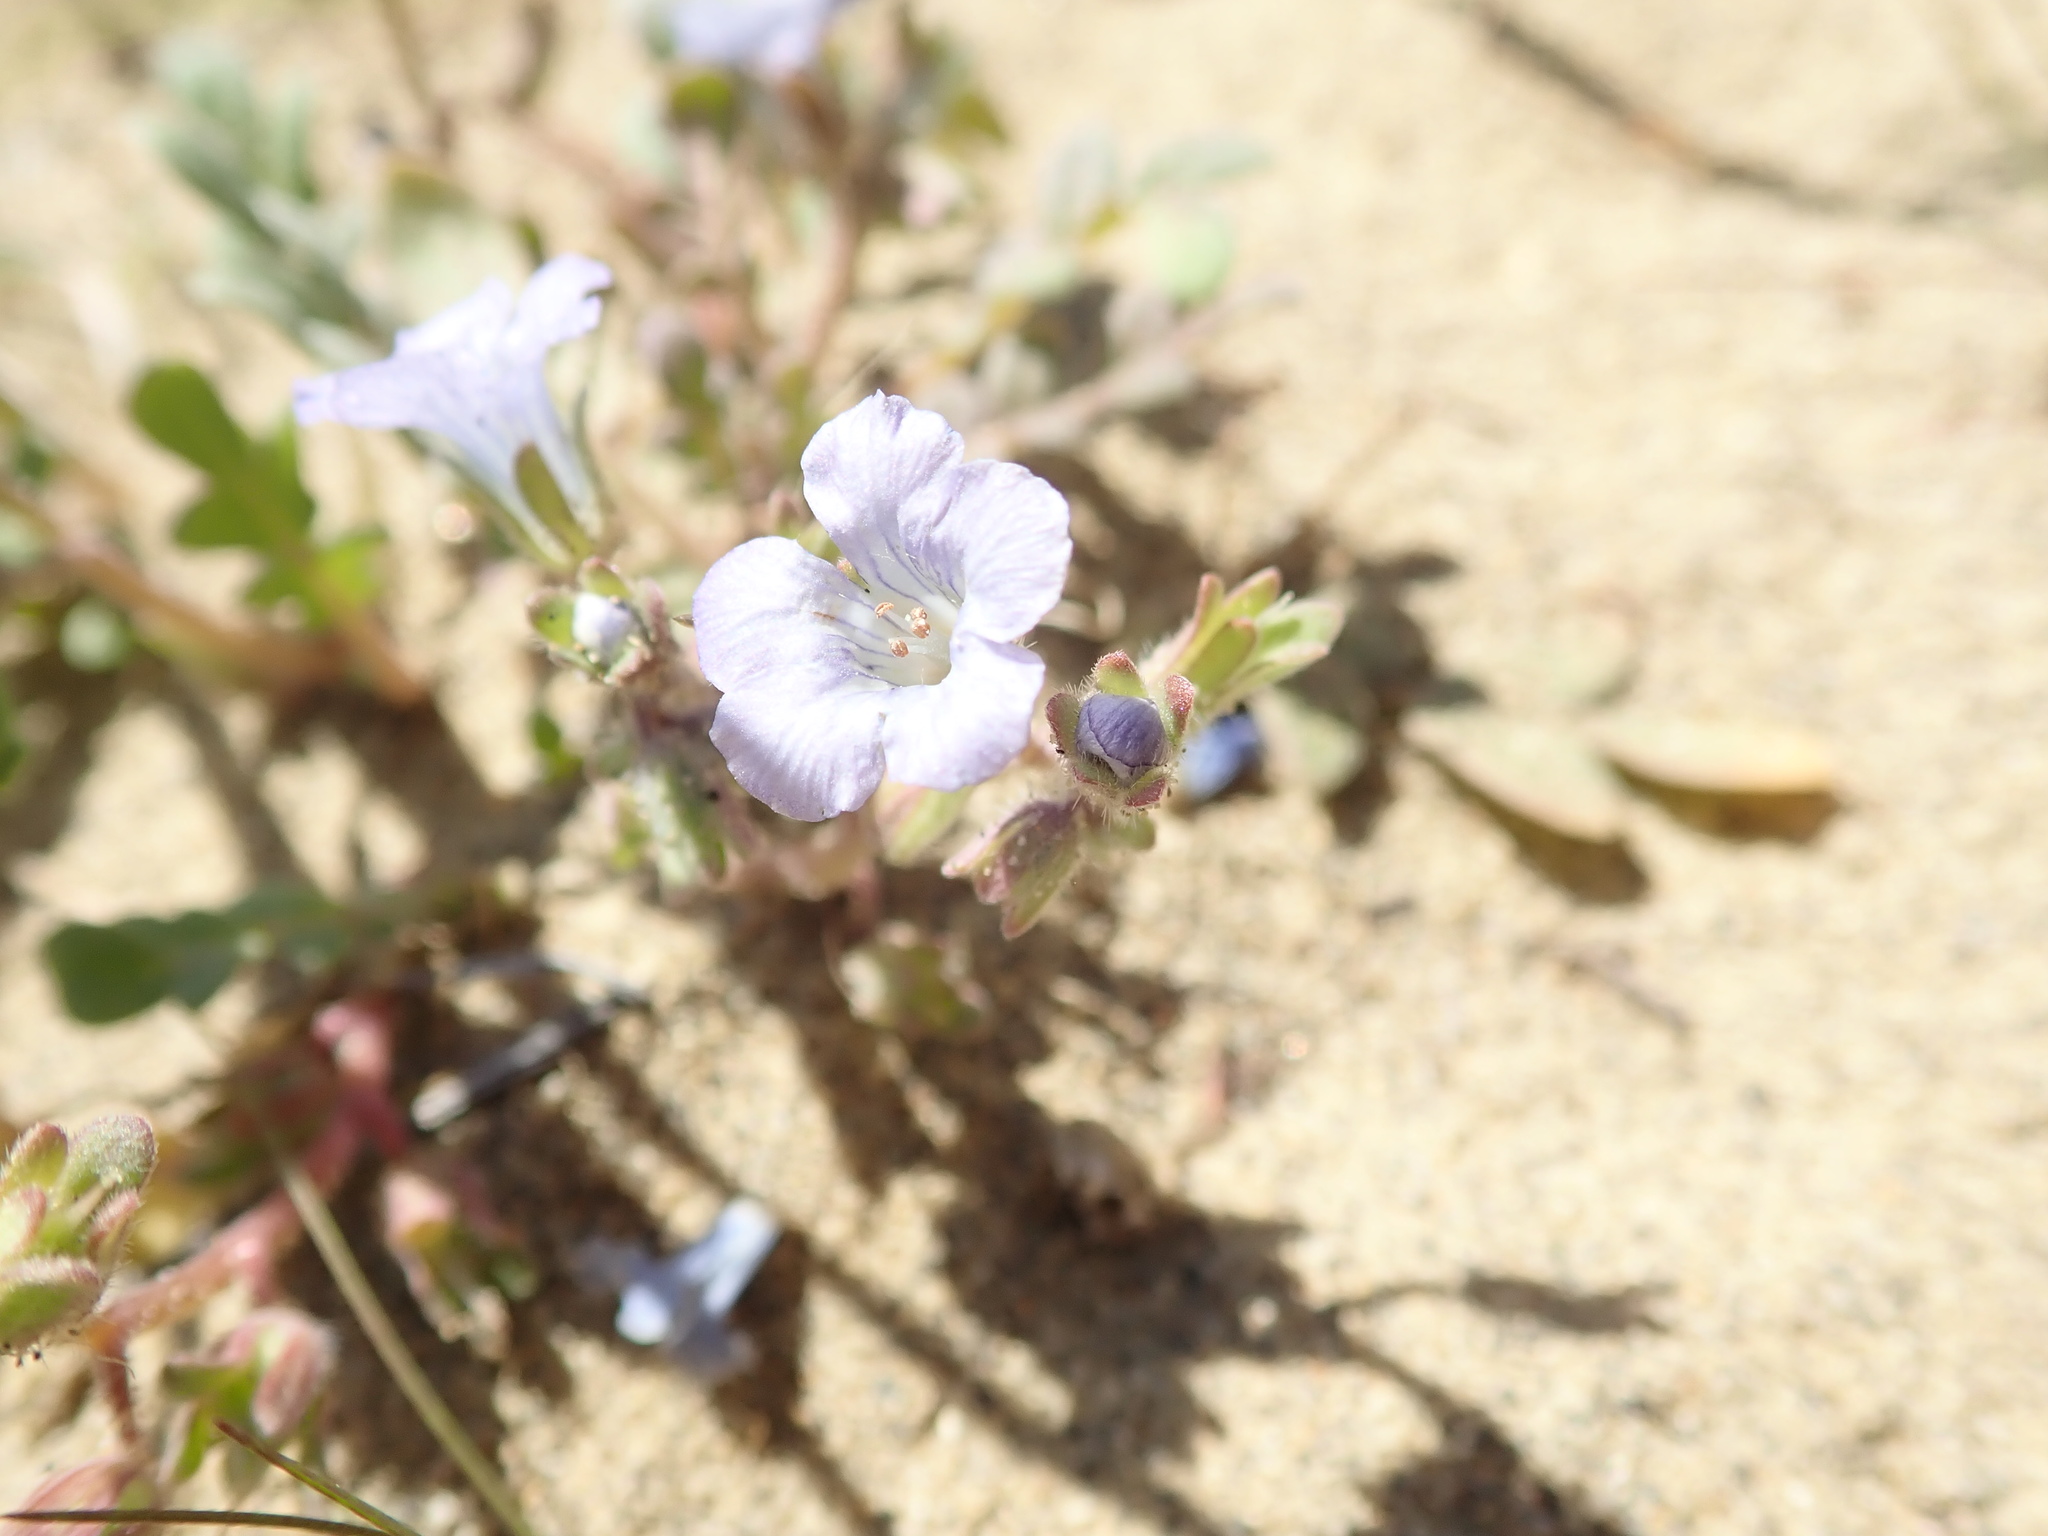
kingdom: Plantae
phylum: Tracheophyta
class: Magnoliopsida
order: Boraginales
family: Hydrophyllaceae
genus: Phacelia
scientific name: Phacelia douglasii
